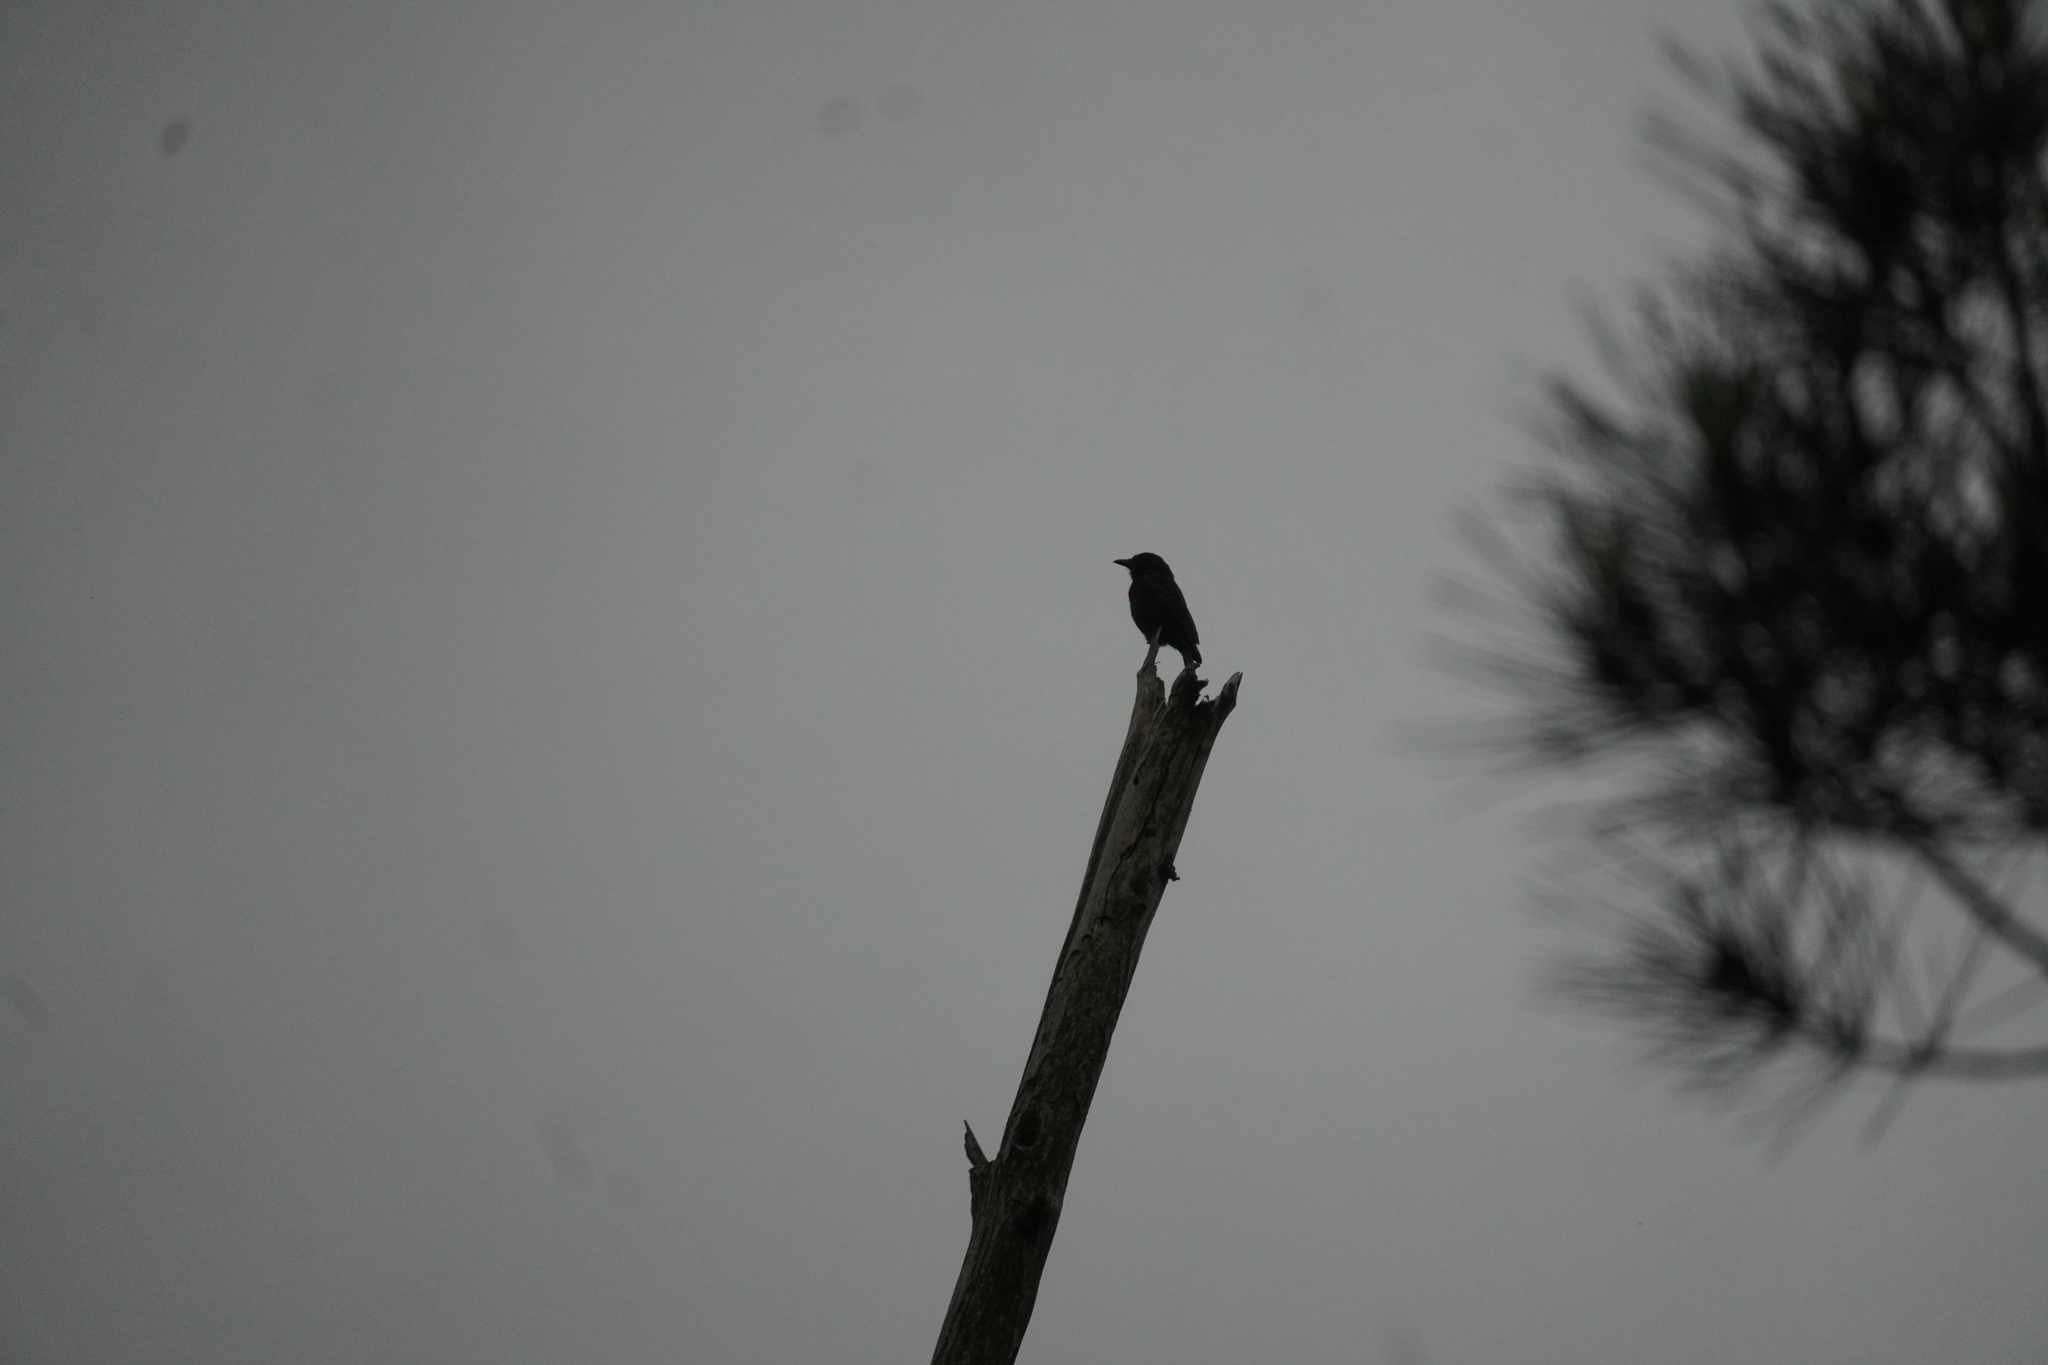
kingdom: Animalia
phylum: Chordata
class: Aves
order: Passeriformes
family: Dicruridae
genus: Dicrurus
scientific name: Dicrurus adsimilis
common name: Fork-tailed drongo
